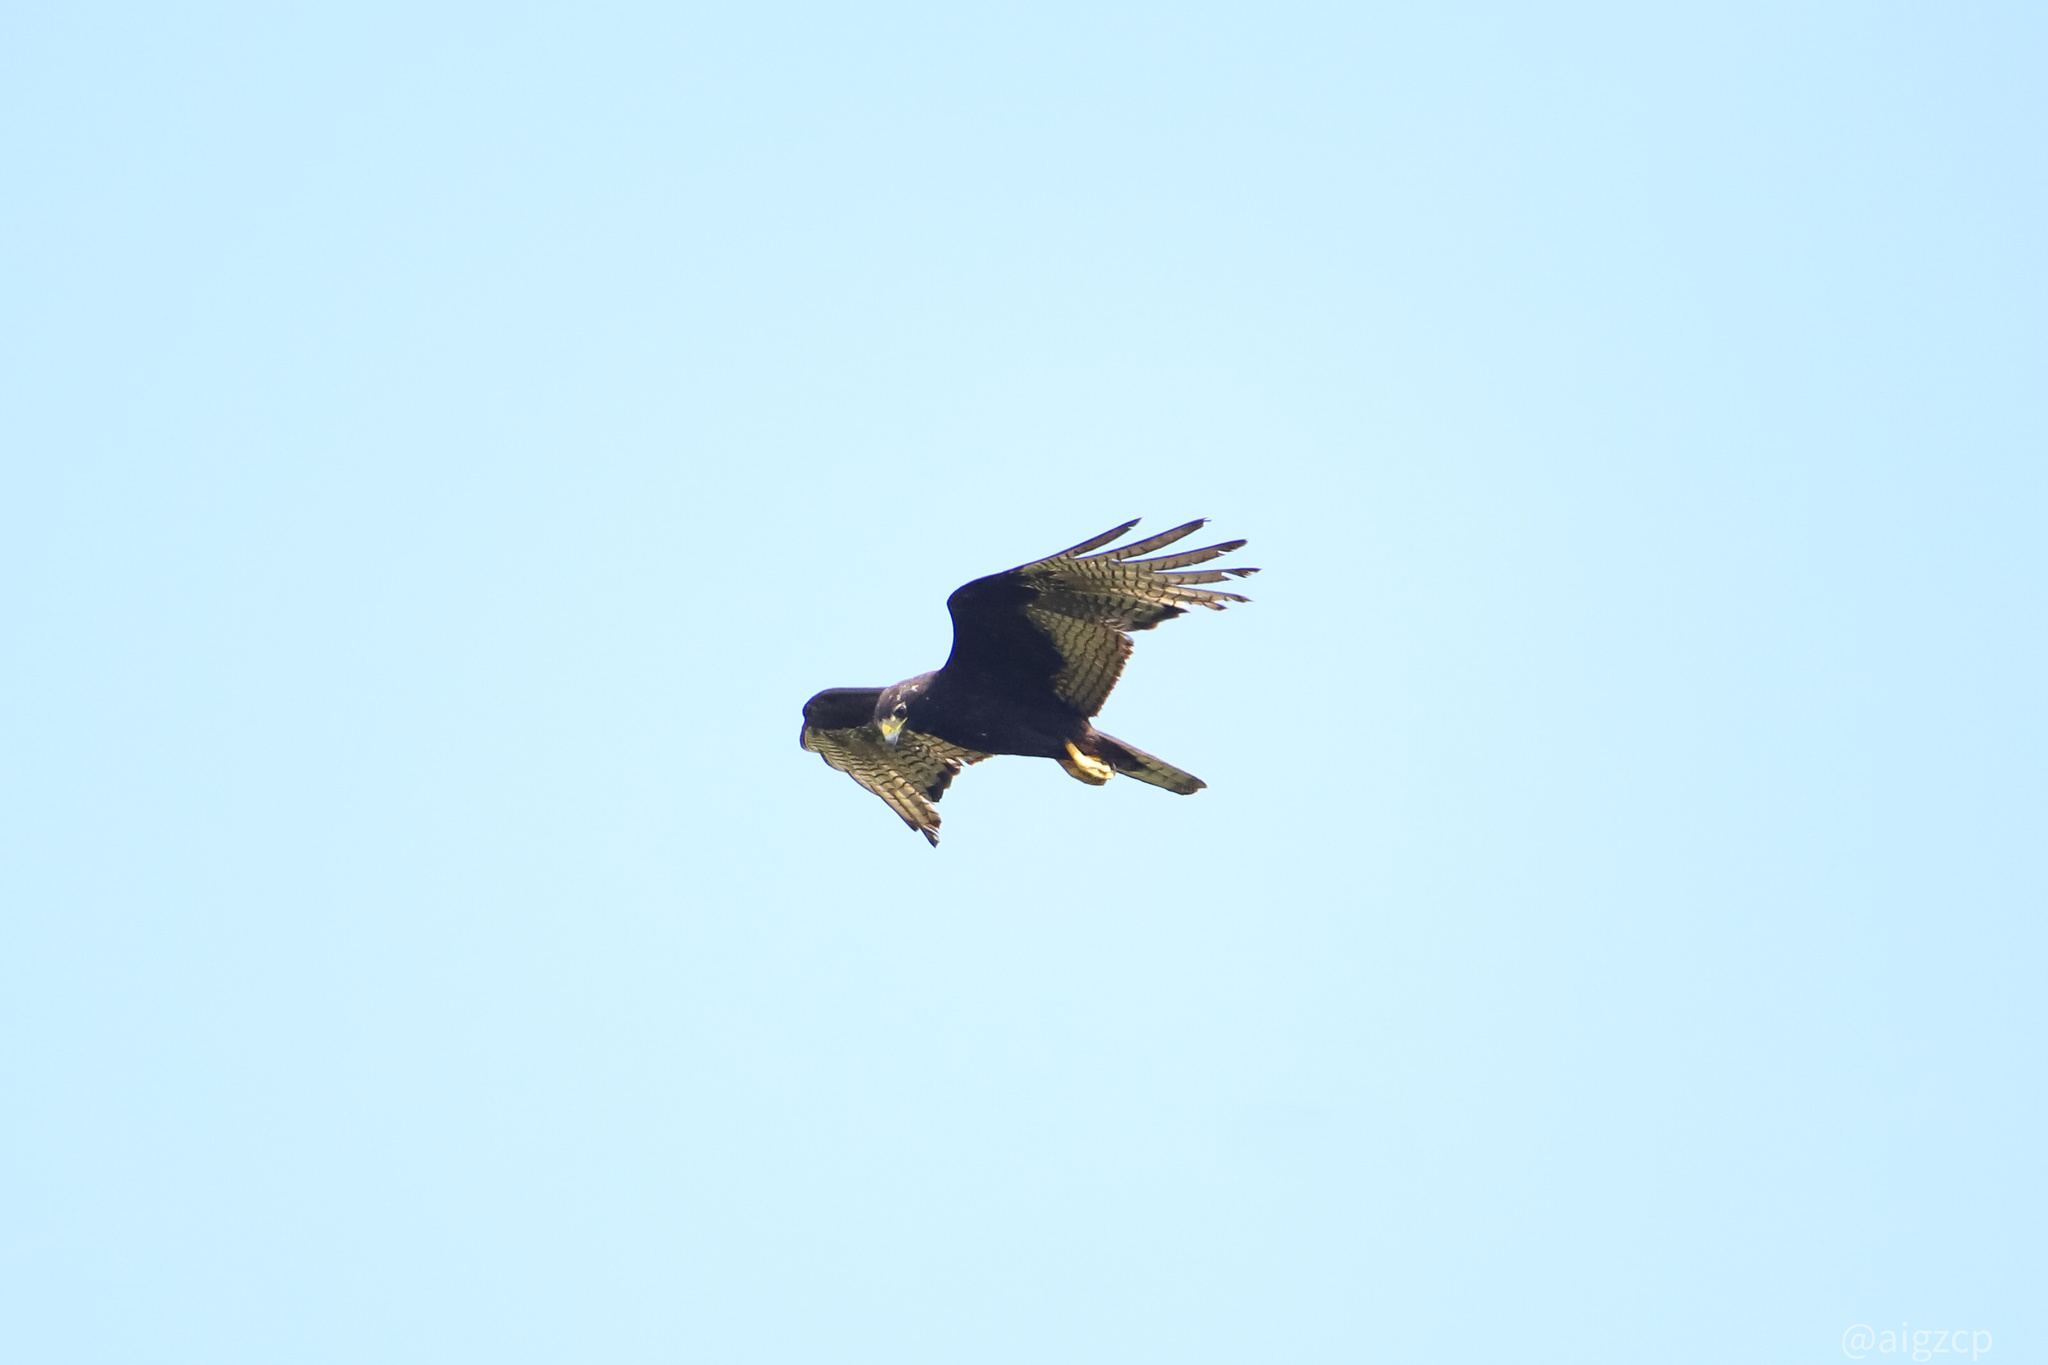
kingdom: Animalia
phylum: Chordata
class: Aves
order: Accipitriformes
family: Accipitridae
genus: Buteo
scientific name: Buteo albonotatus
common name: Zone-tailed hawk
